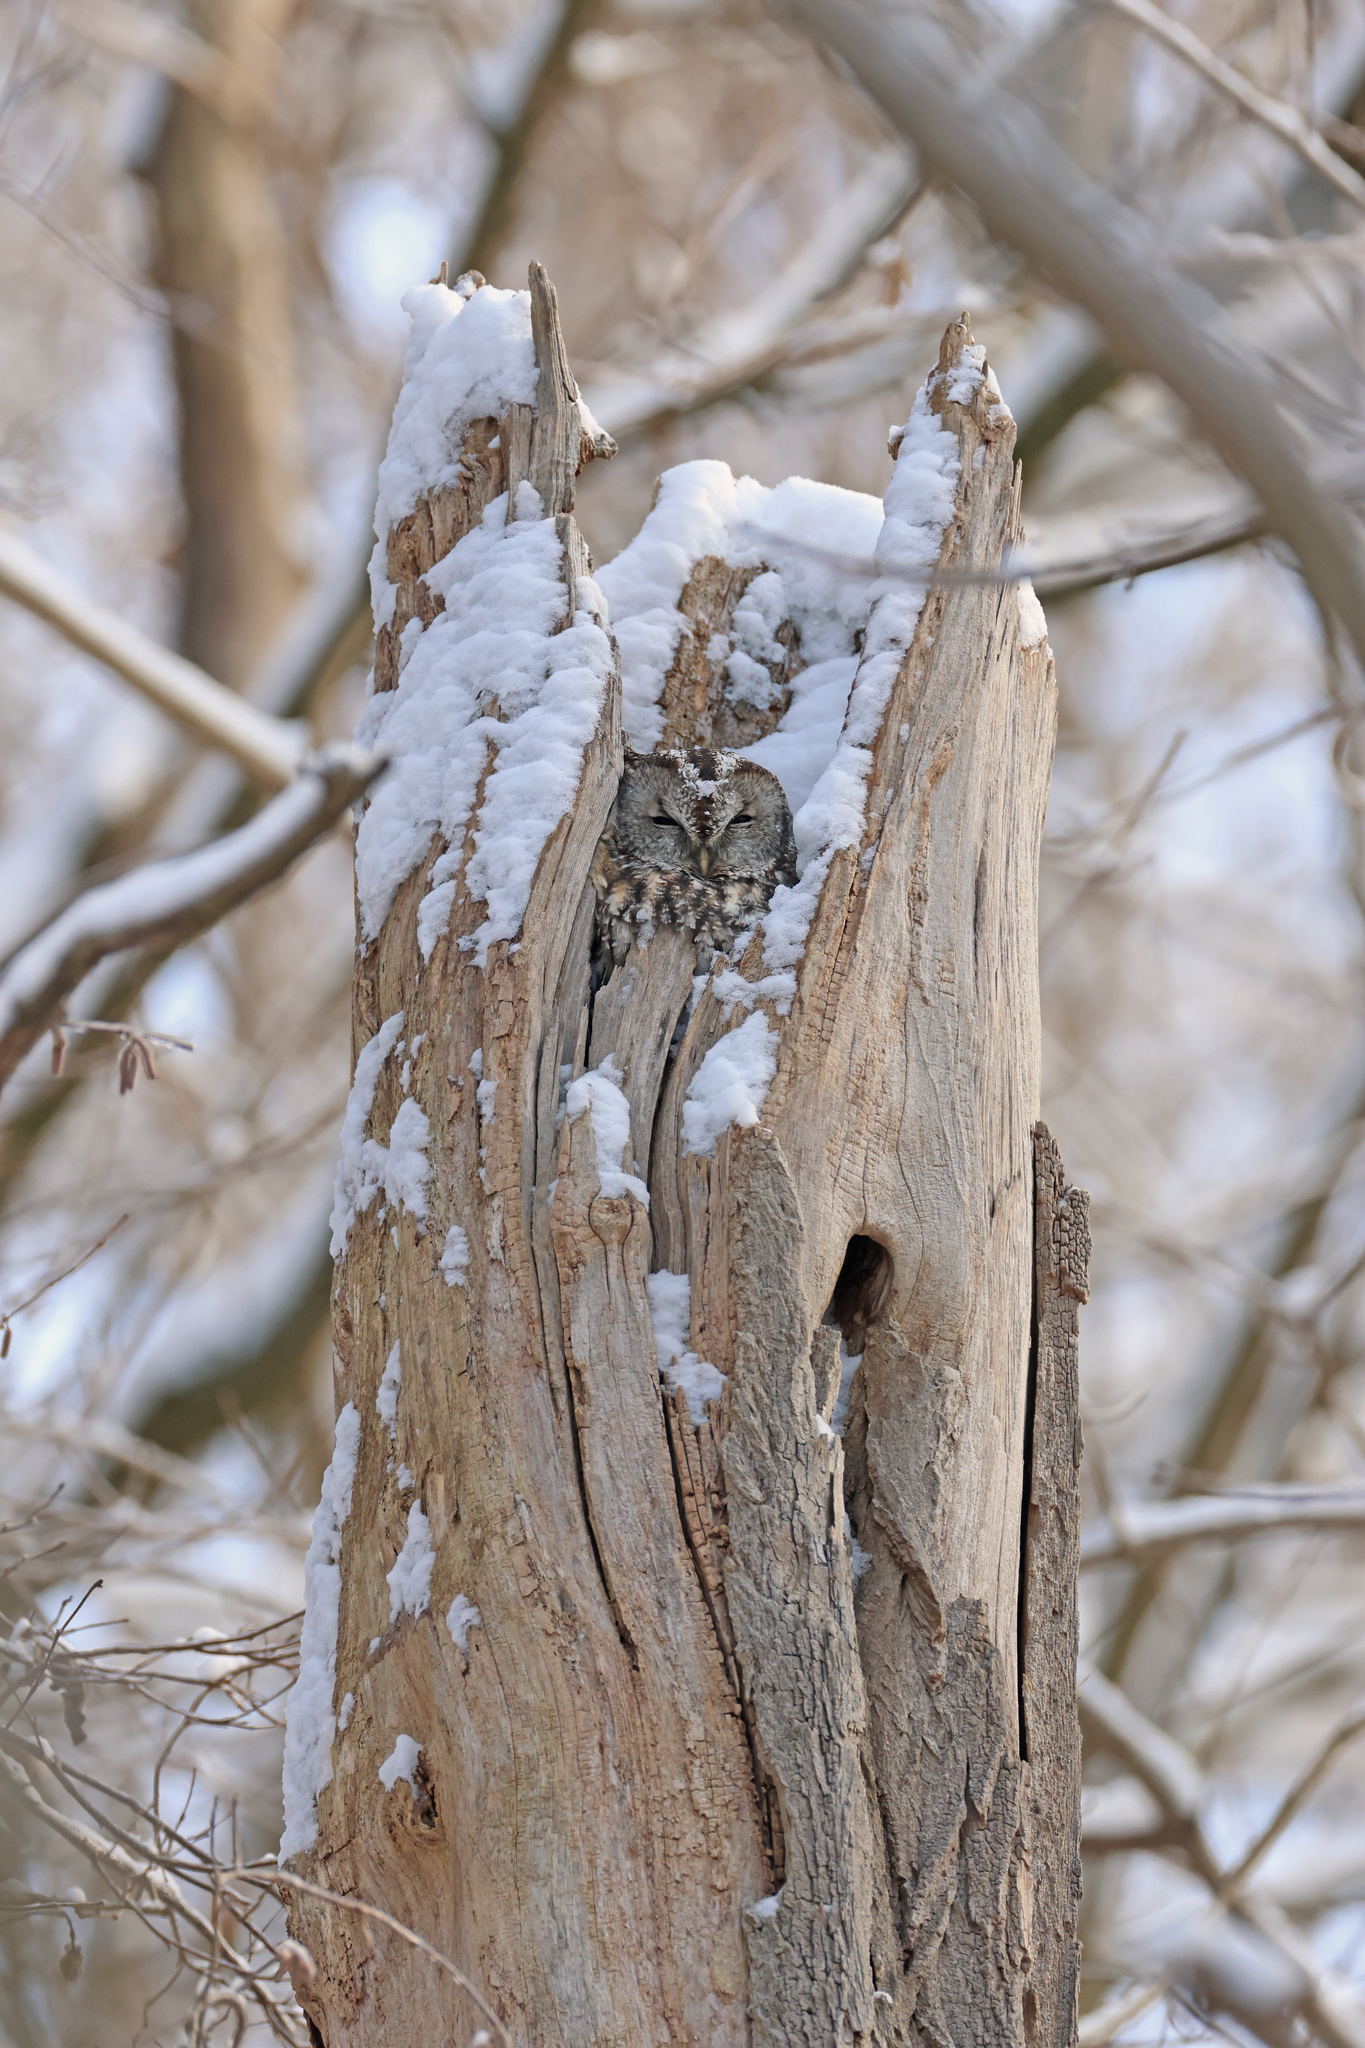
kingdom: Animalia
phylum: Chordata
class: Aves
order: Strigiformes
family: Strigidae
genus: Strix
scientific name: Strix aluco
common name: Tawny owl
